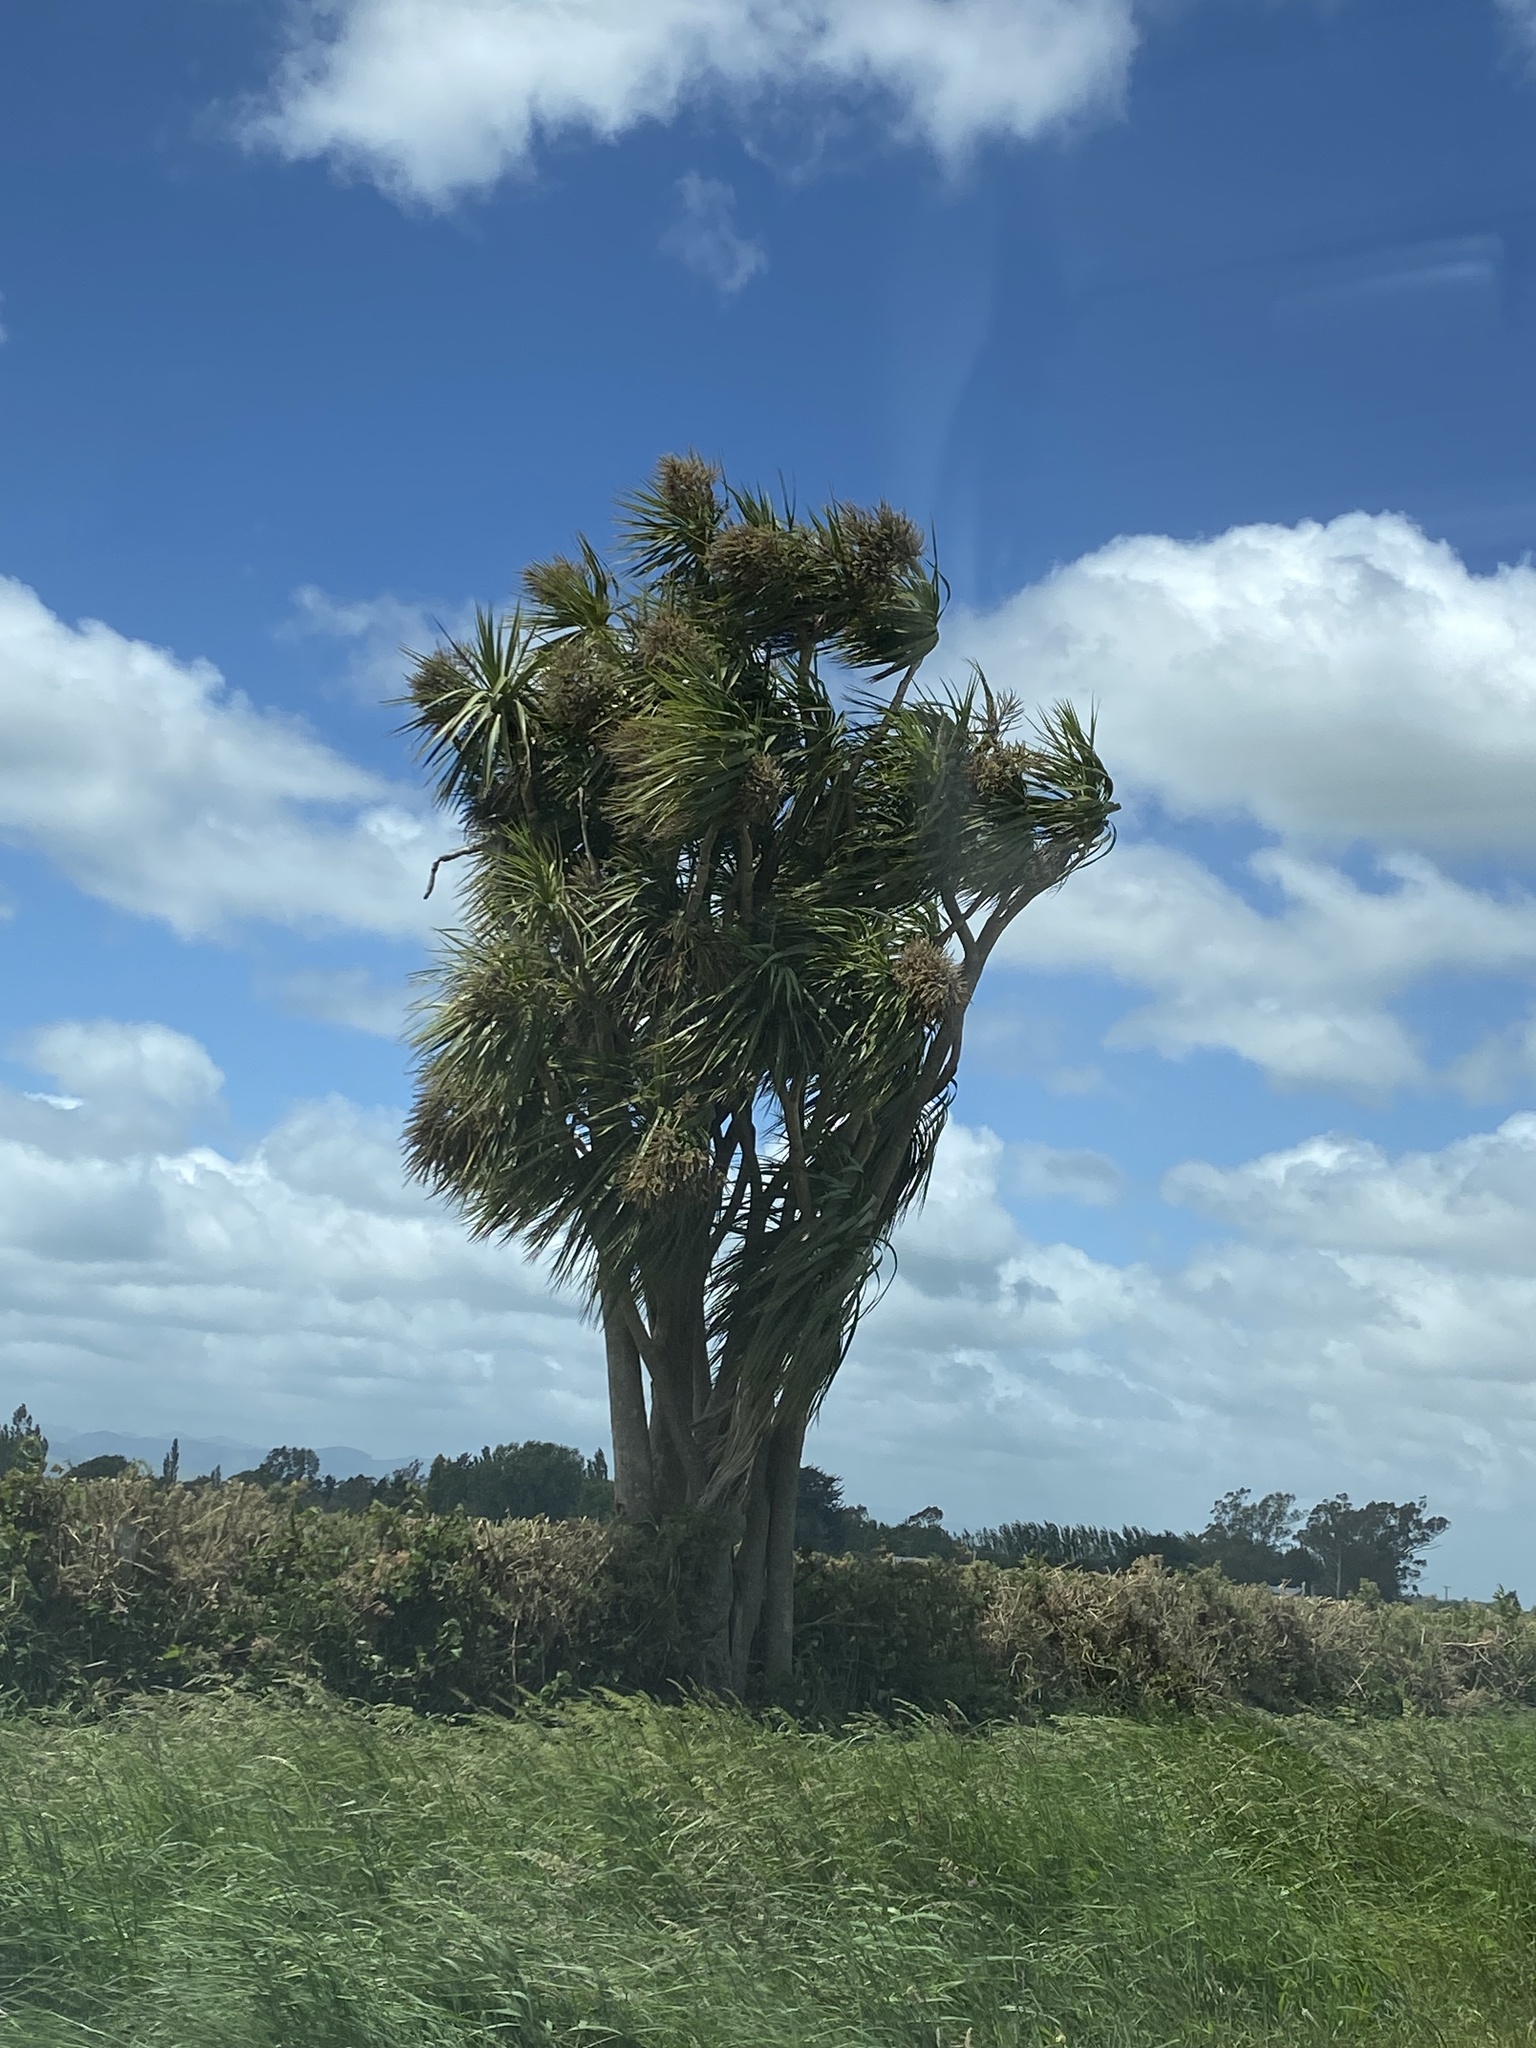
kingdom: Plantae
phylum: Tracheophyta
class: Liliopsida
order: Asparagales
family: Asparagaceae
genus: Cordyline
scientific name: Cordyline australis
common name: Cabbage-palm
